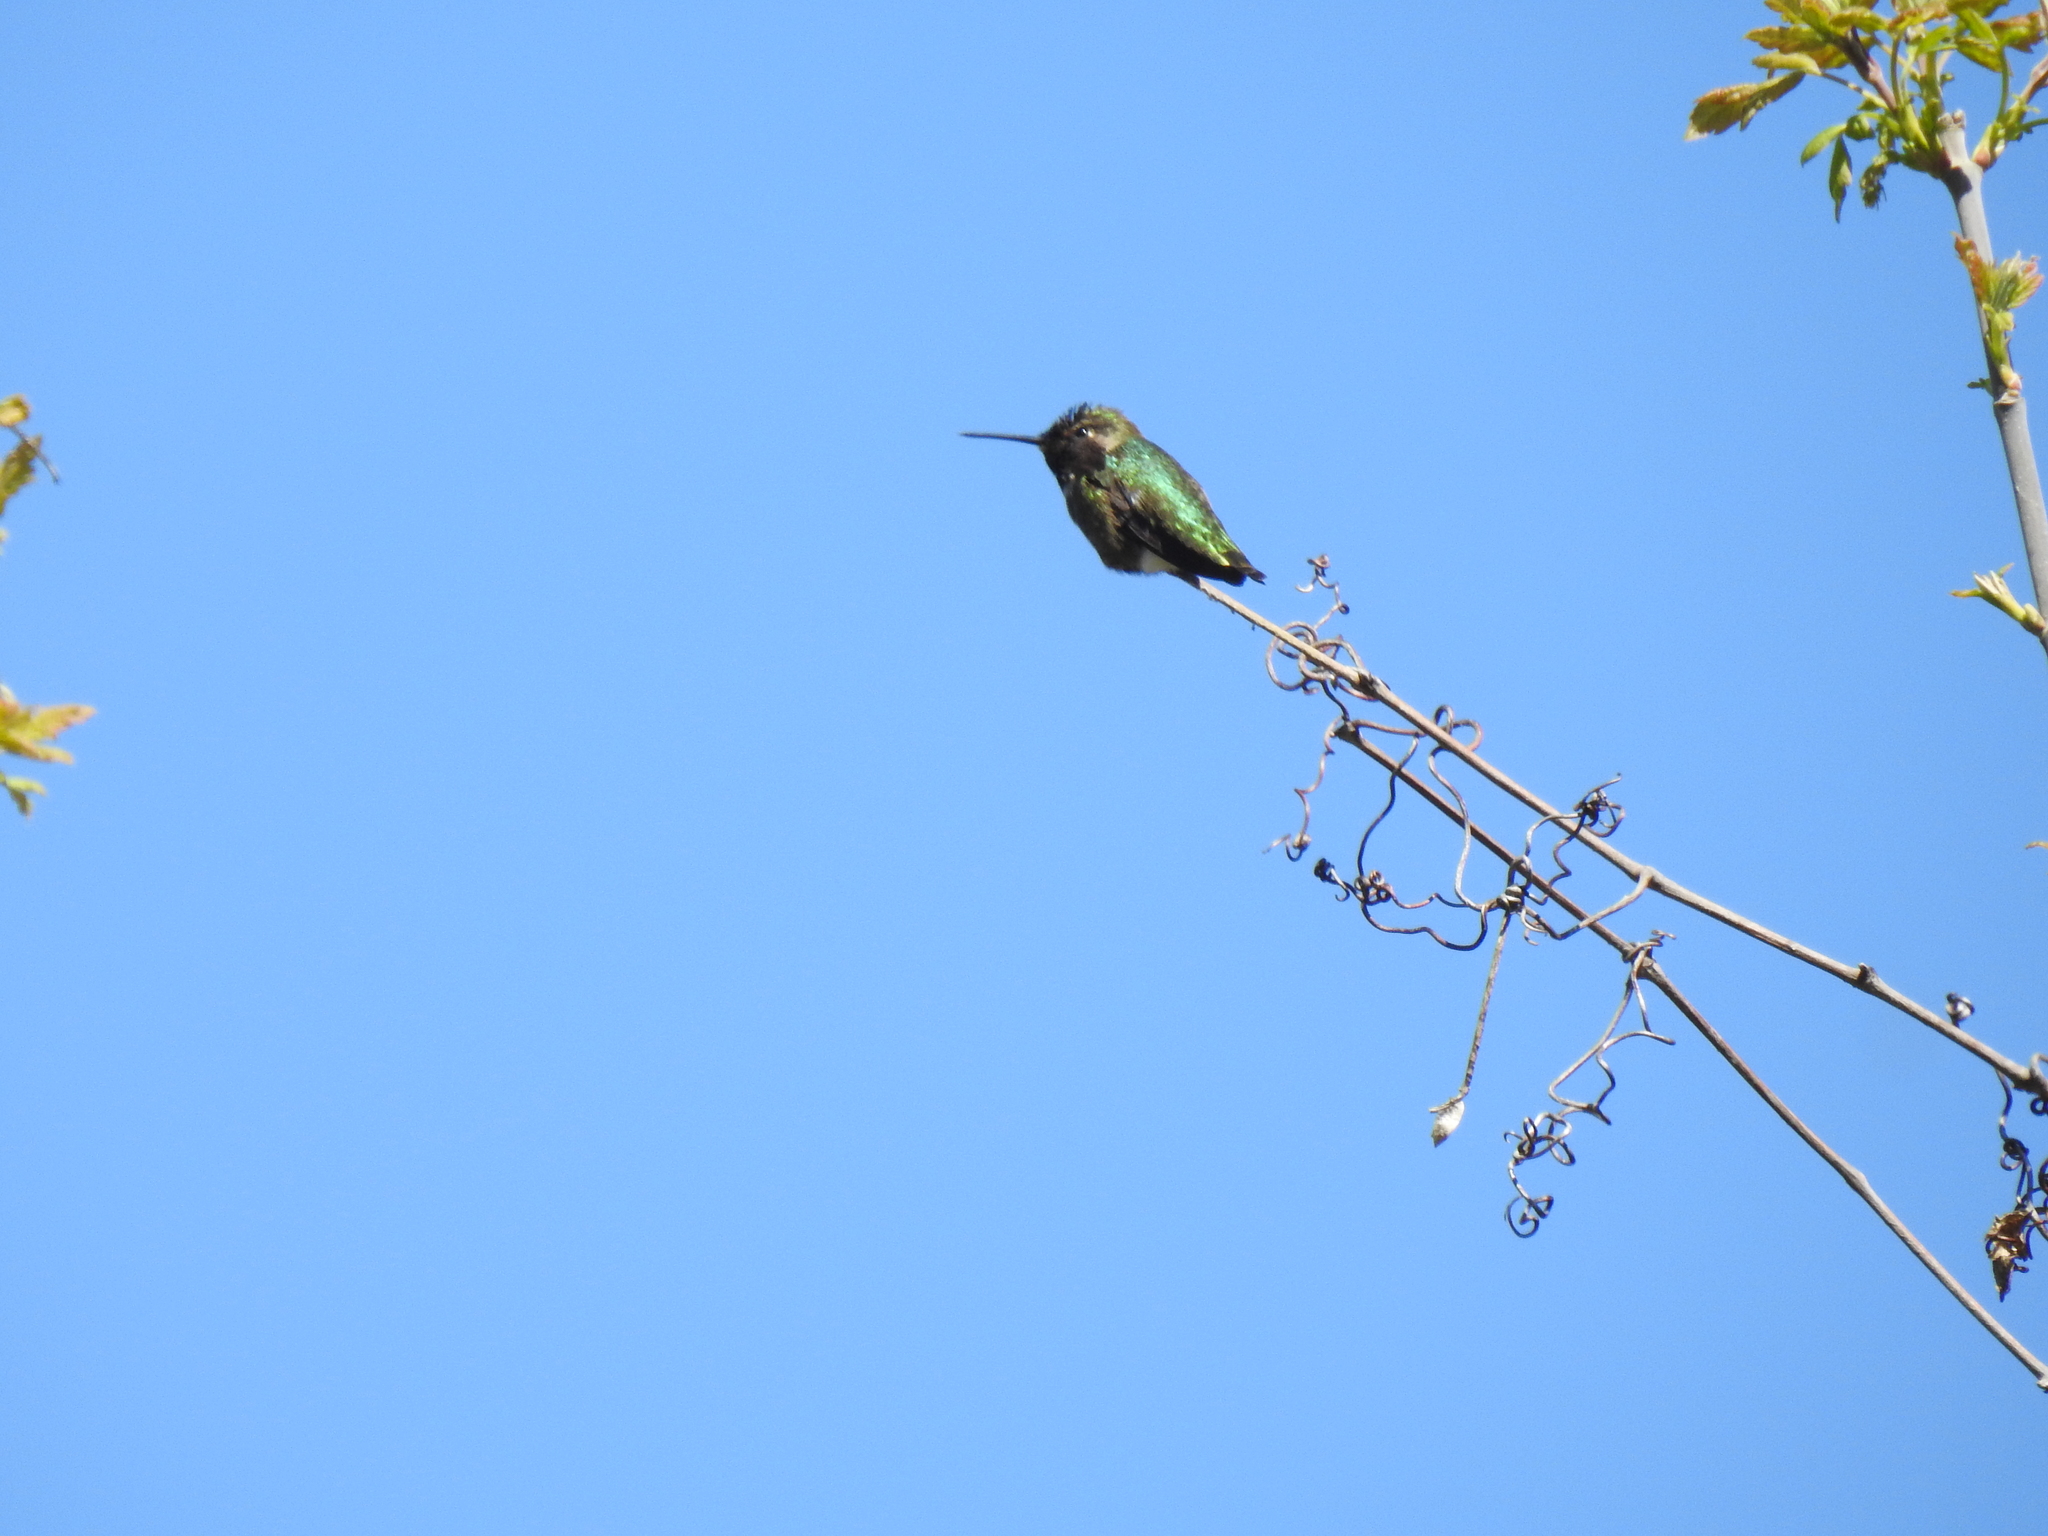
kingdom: Animalia
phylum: Chordata
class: Aves
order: Apodiformes
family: Trochilidae
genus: Calypte
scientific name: Calypte anna
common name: Anna's hummingbird
